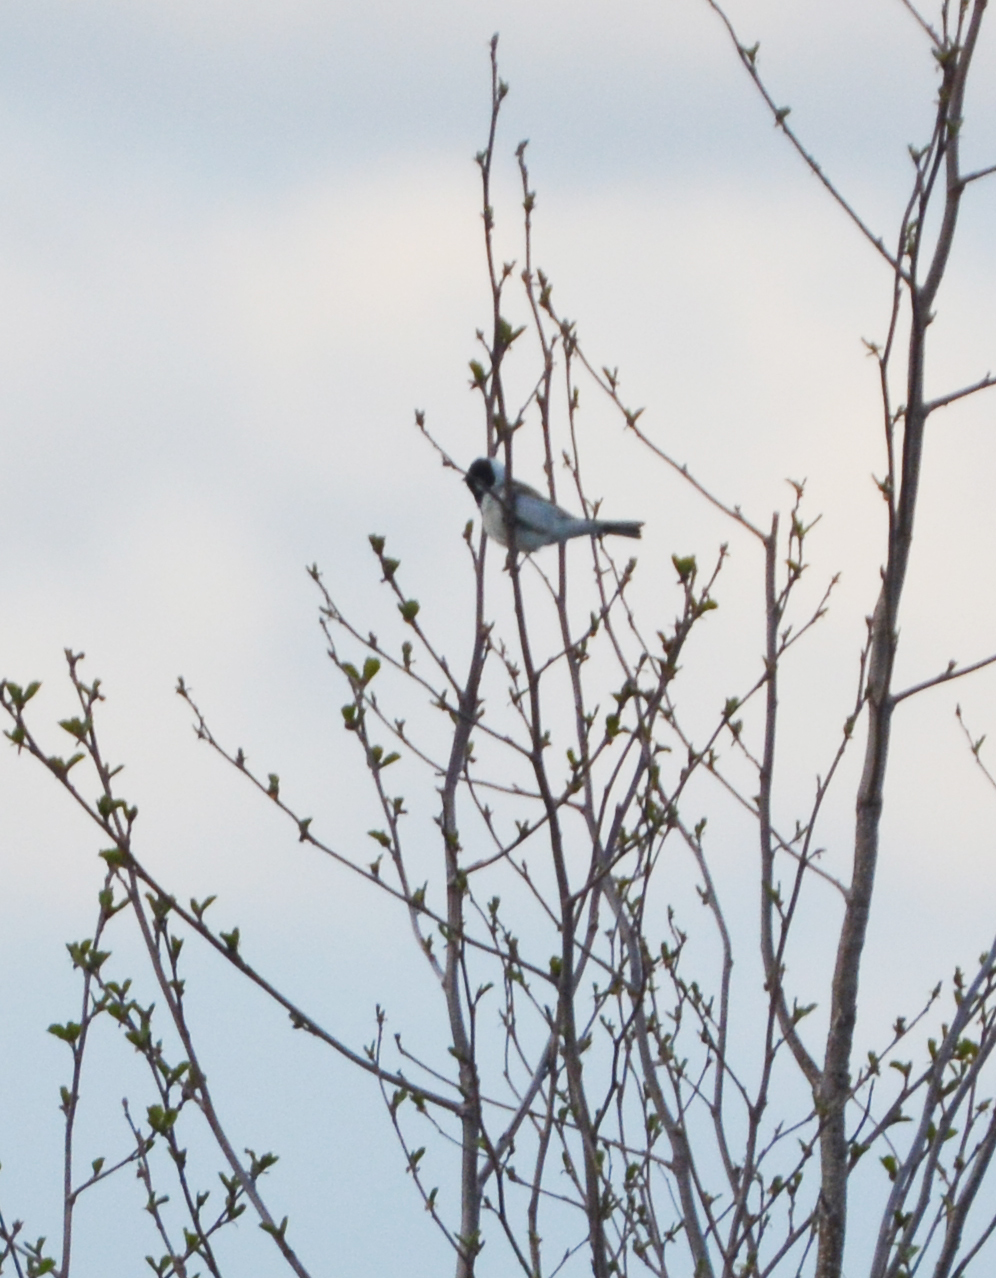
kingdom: Animalia
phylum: Chordata
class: Aves
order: Passeriformes
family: Emberizidae
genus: Emberiza
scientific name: Emberiza schoeniclus
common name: Reed bunting
